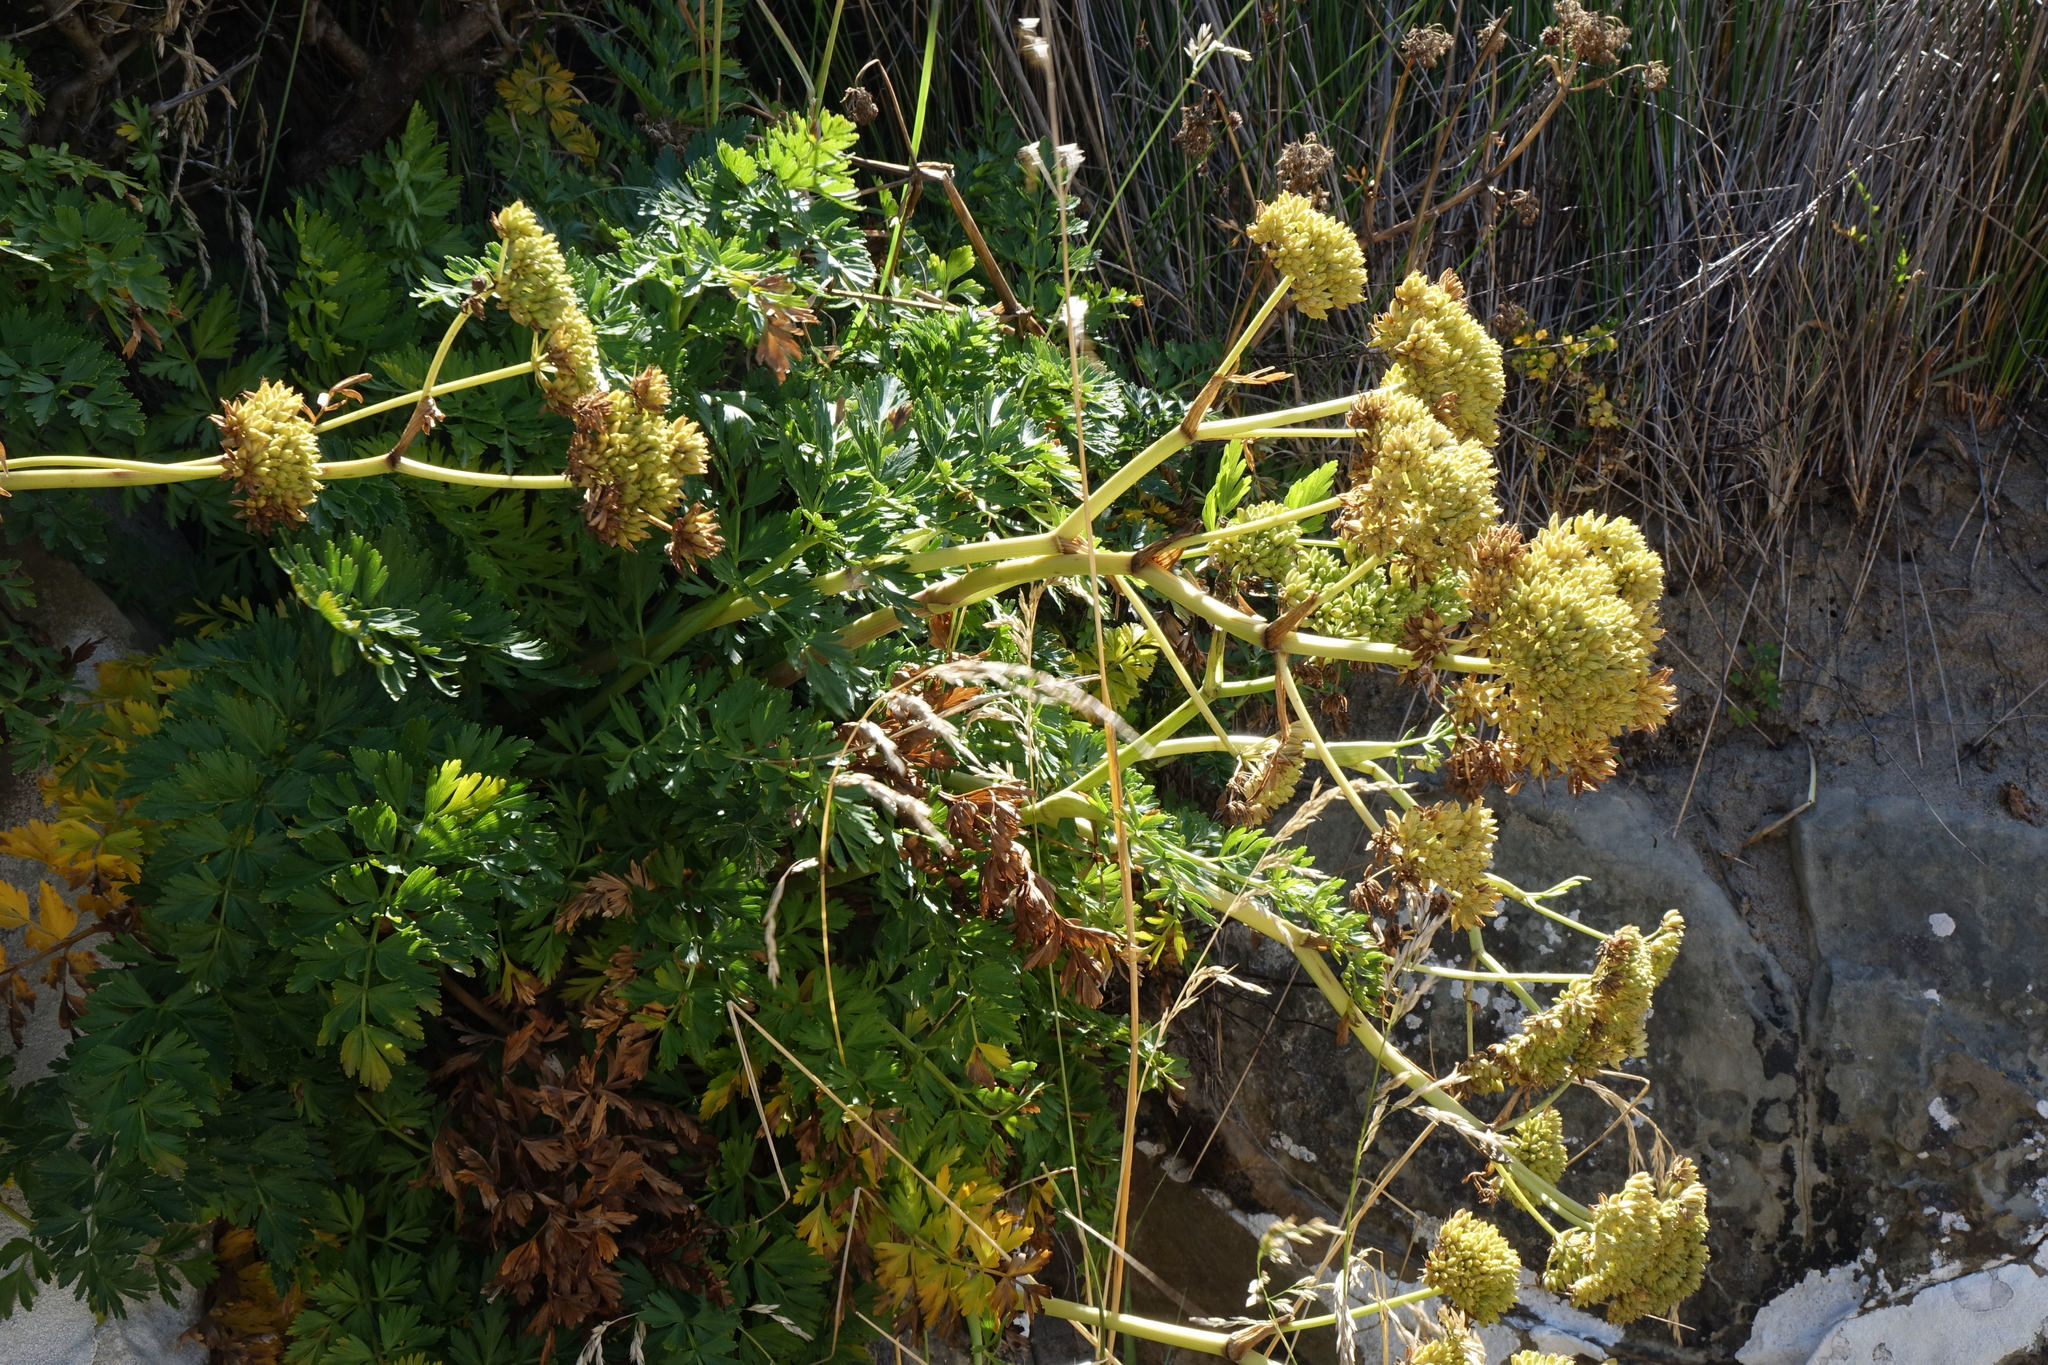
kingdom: Plantae
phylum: Tracheophyta
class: Magnoliopsida
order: Apiales
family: Apiaceae
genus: Anisotome
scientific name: Anisotome lyallii
